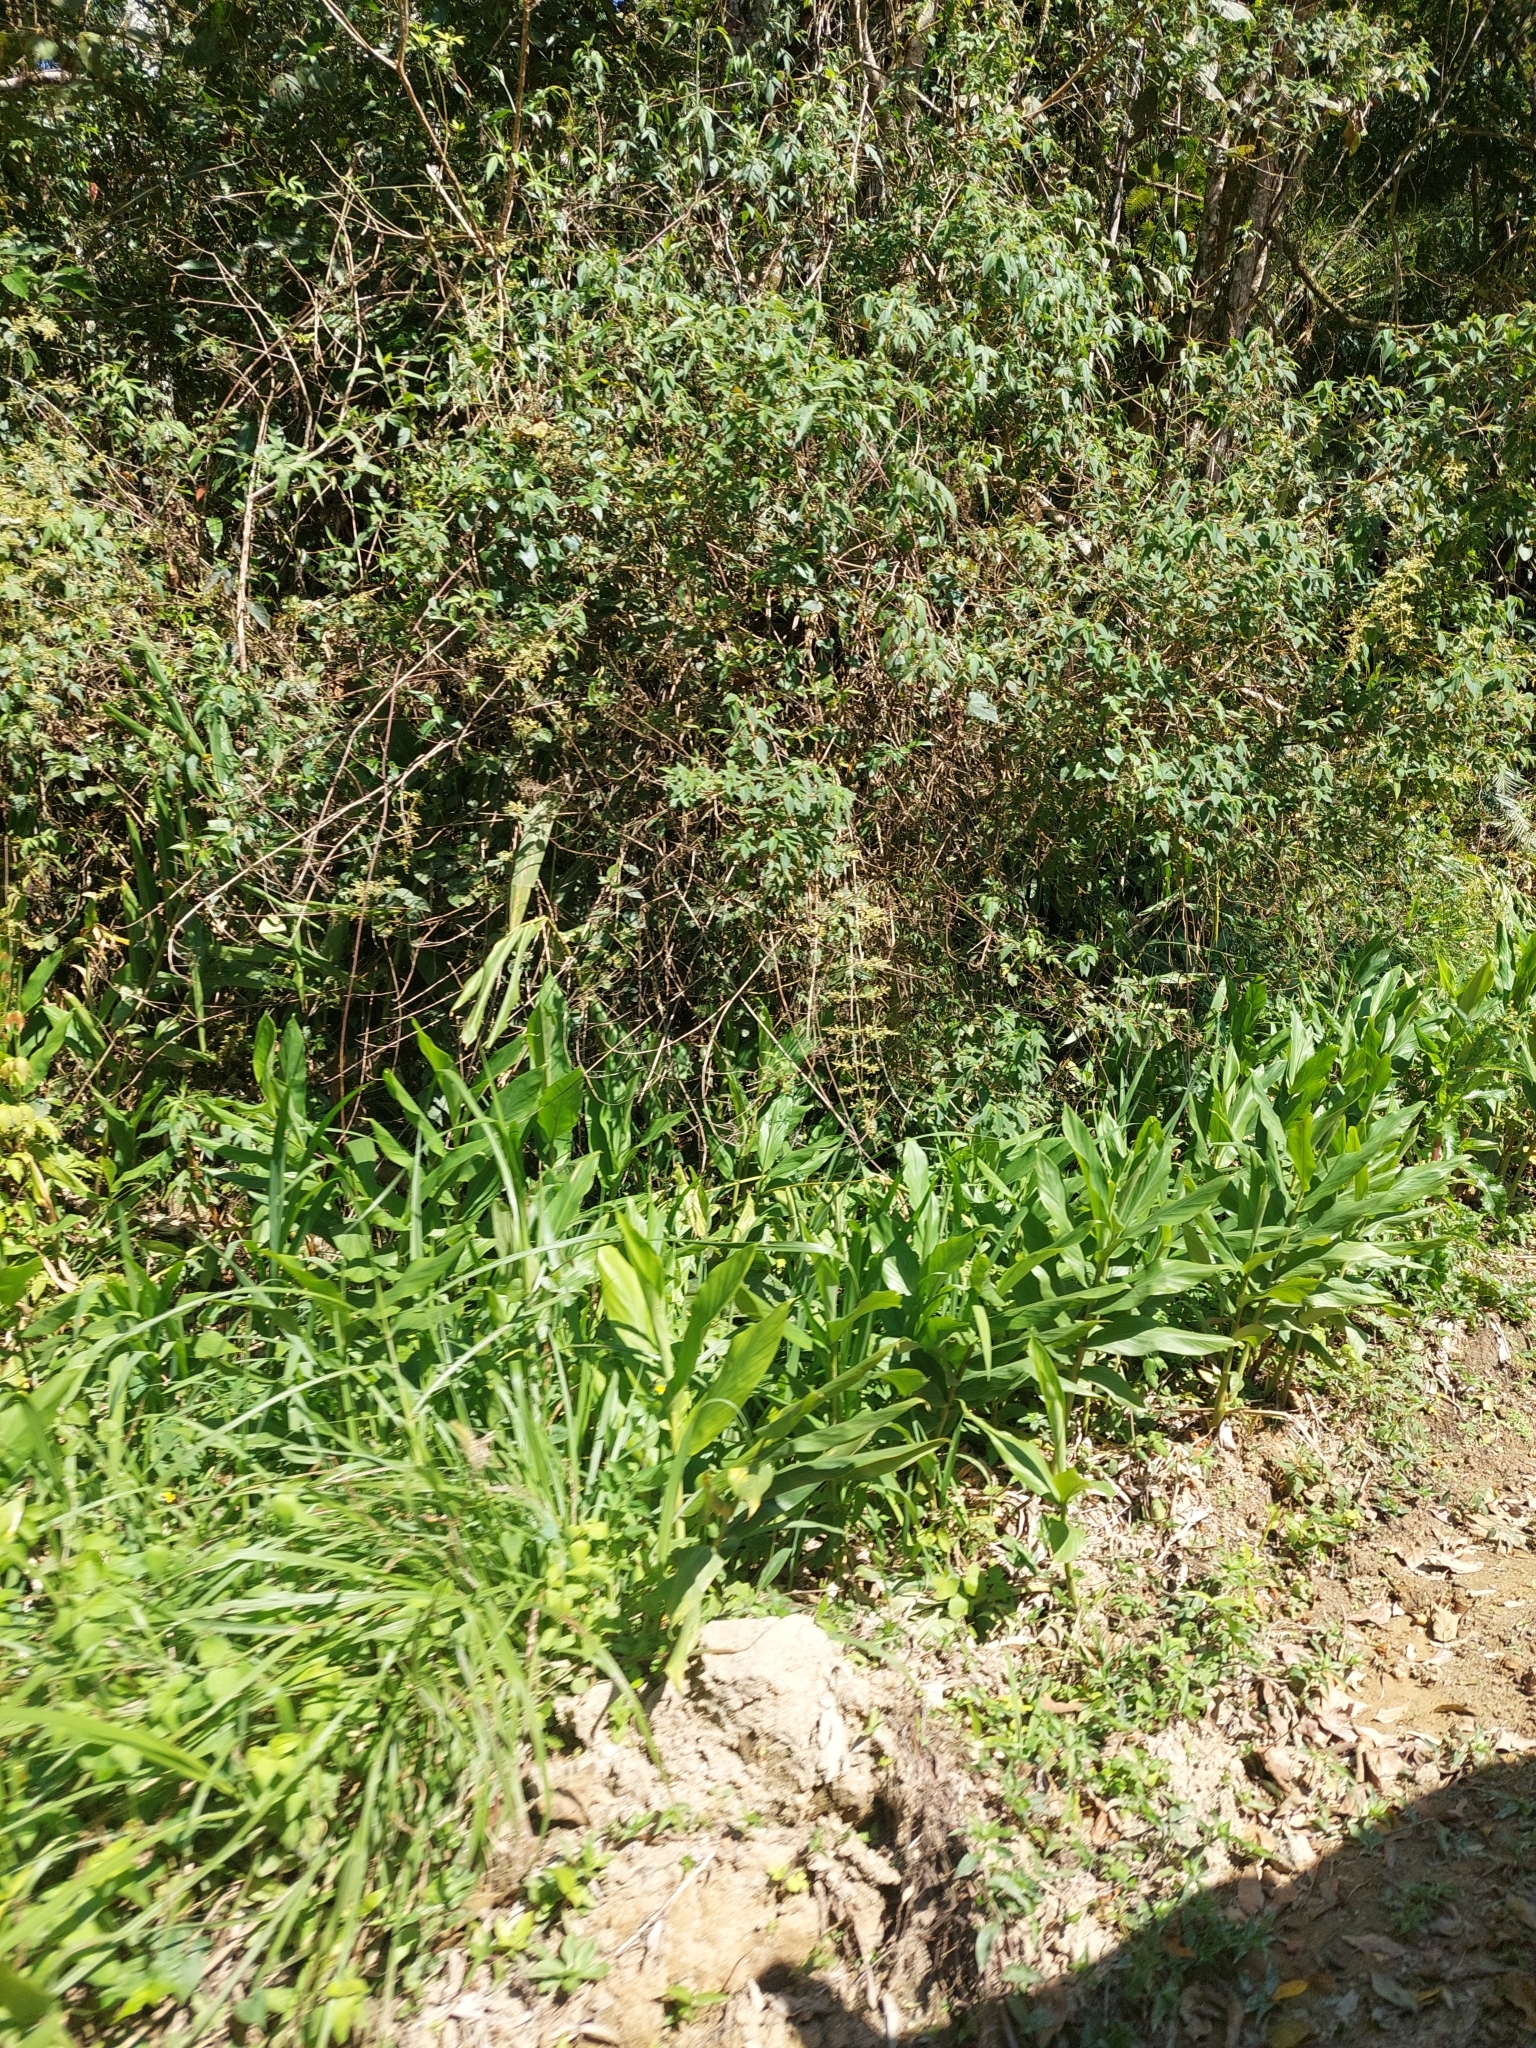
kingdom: Plantae
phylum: Tracheophyta
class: Liliopsida
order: Zingiberales
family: Zingiberaceae
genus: Hedychium
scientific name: Hedychium coronarium
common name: White garland-lily
